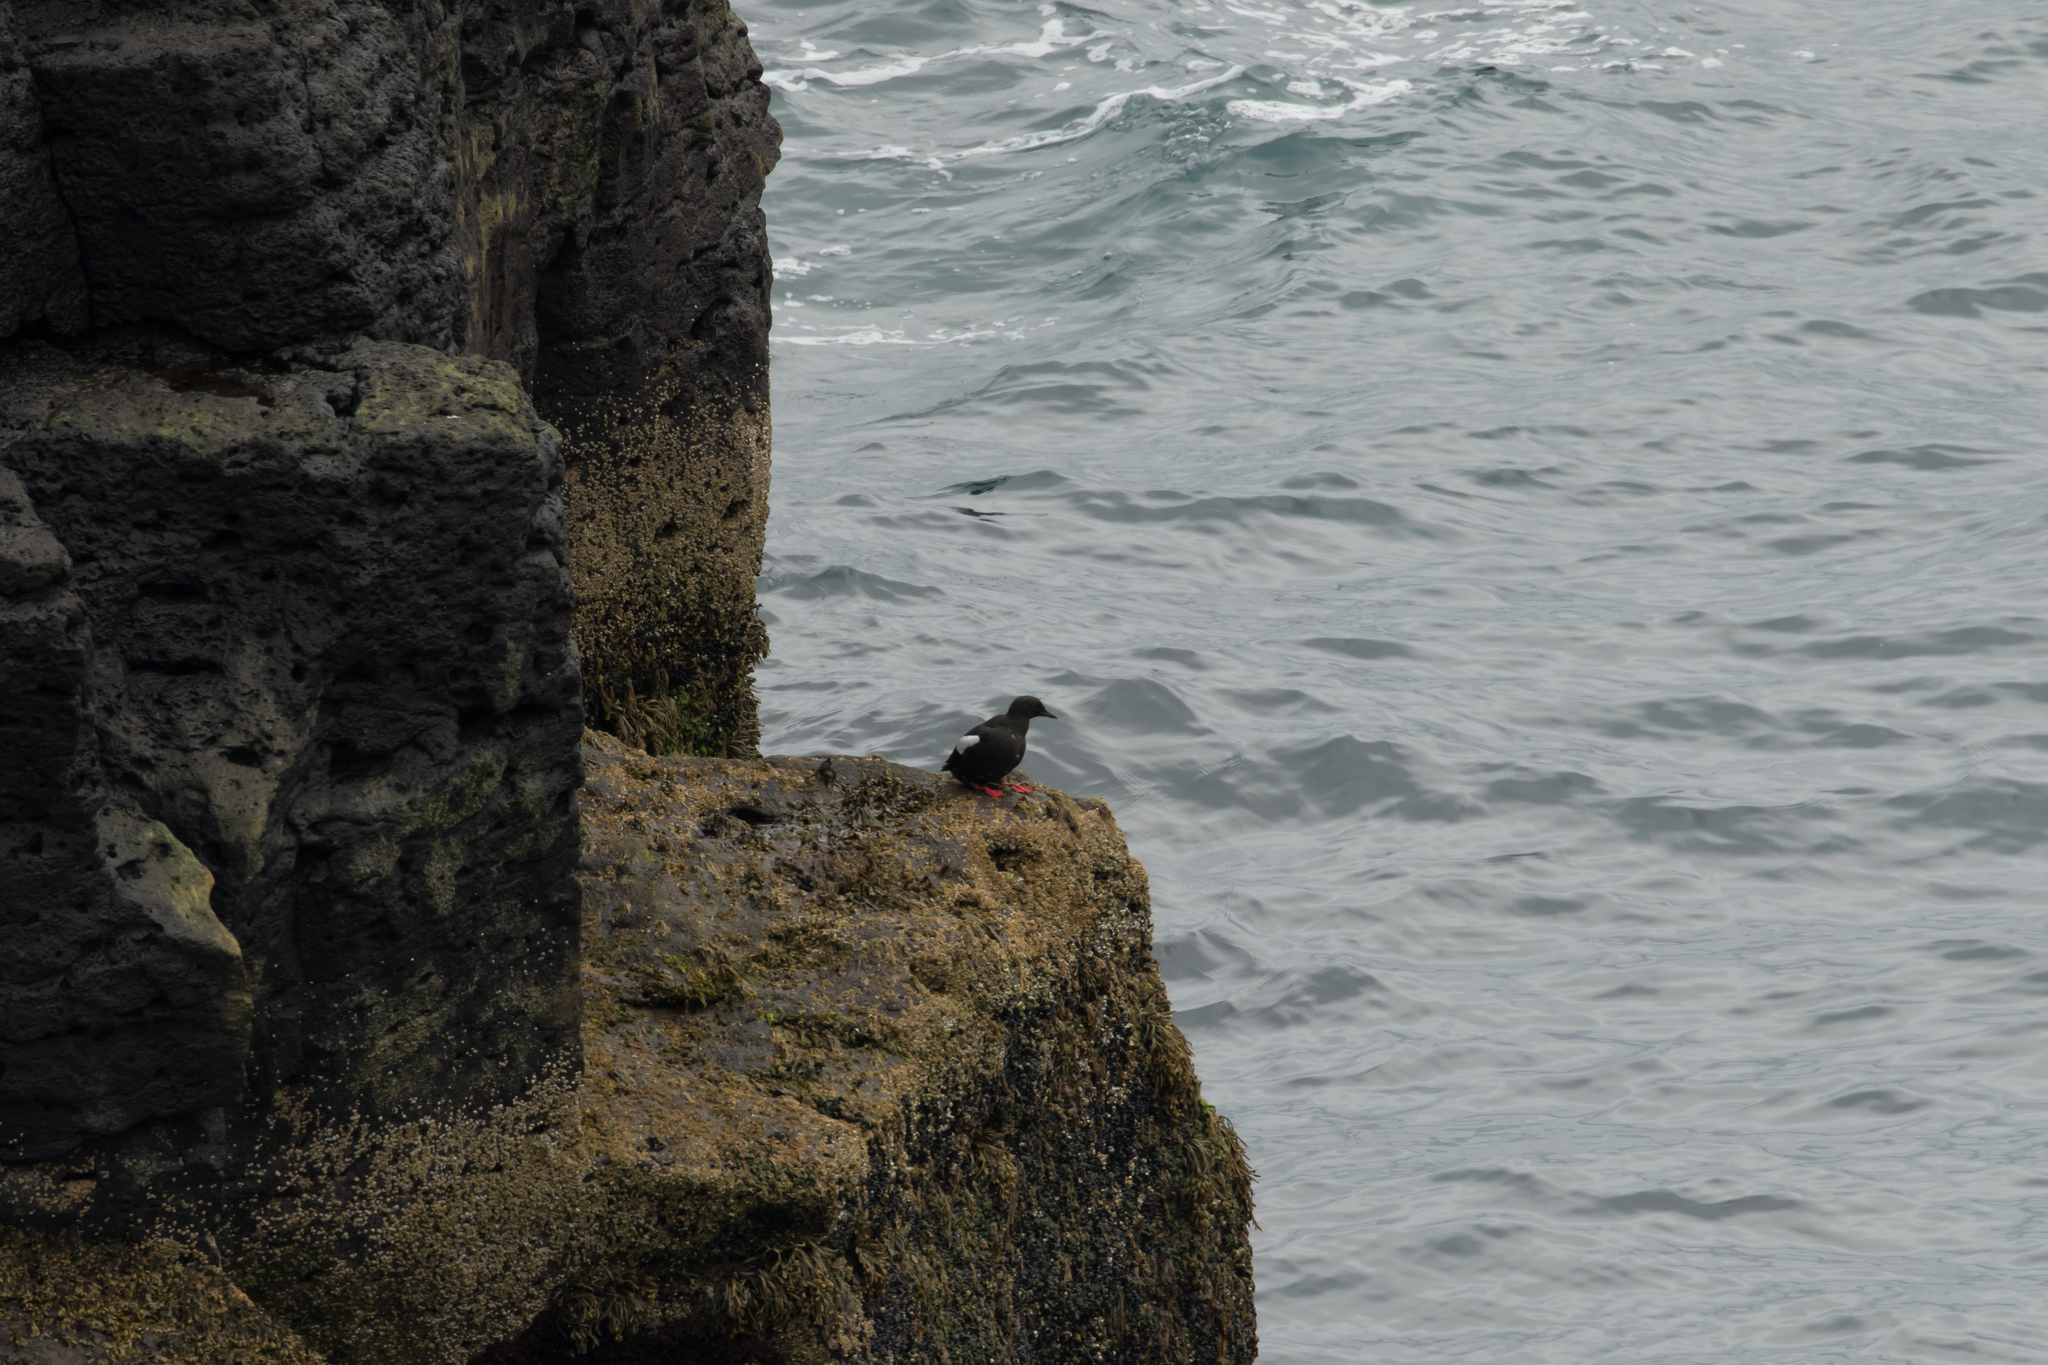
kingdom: Animalia
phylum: Chordata
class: Aves
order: Charadriiformes
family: Alcidae
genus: Cepphus
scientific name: Cepphus grylle
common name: Black guillemot
